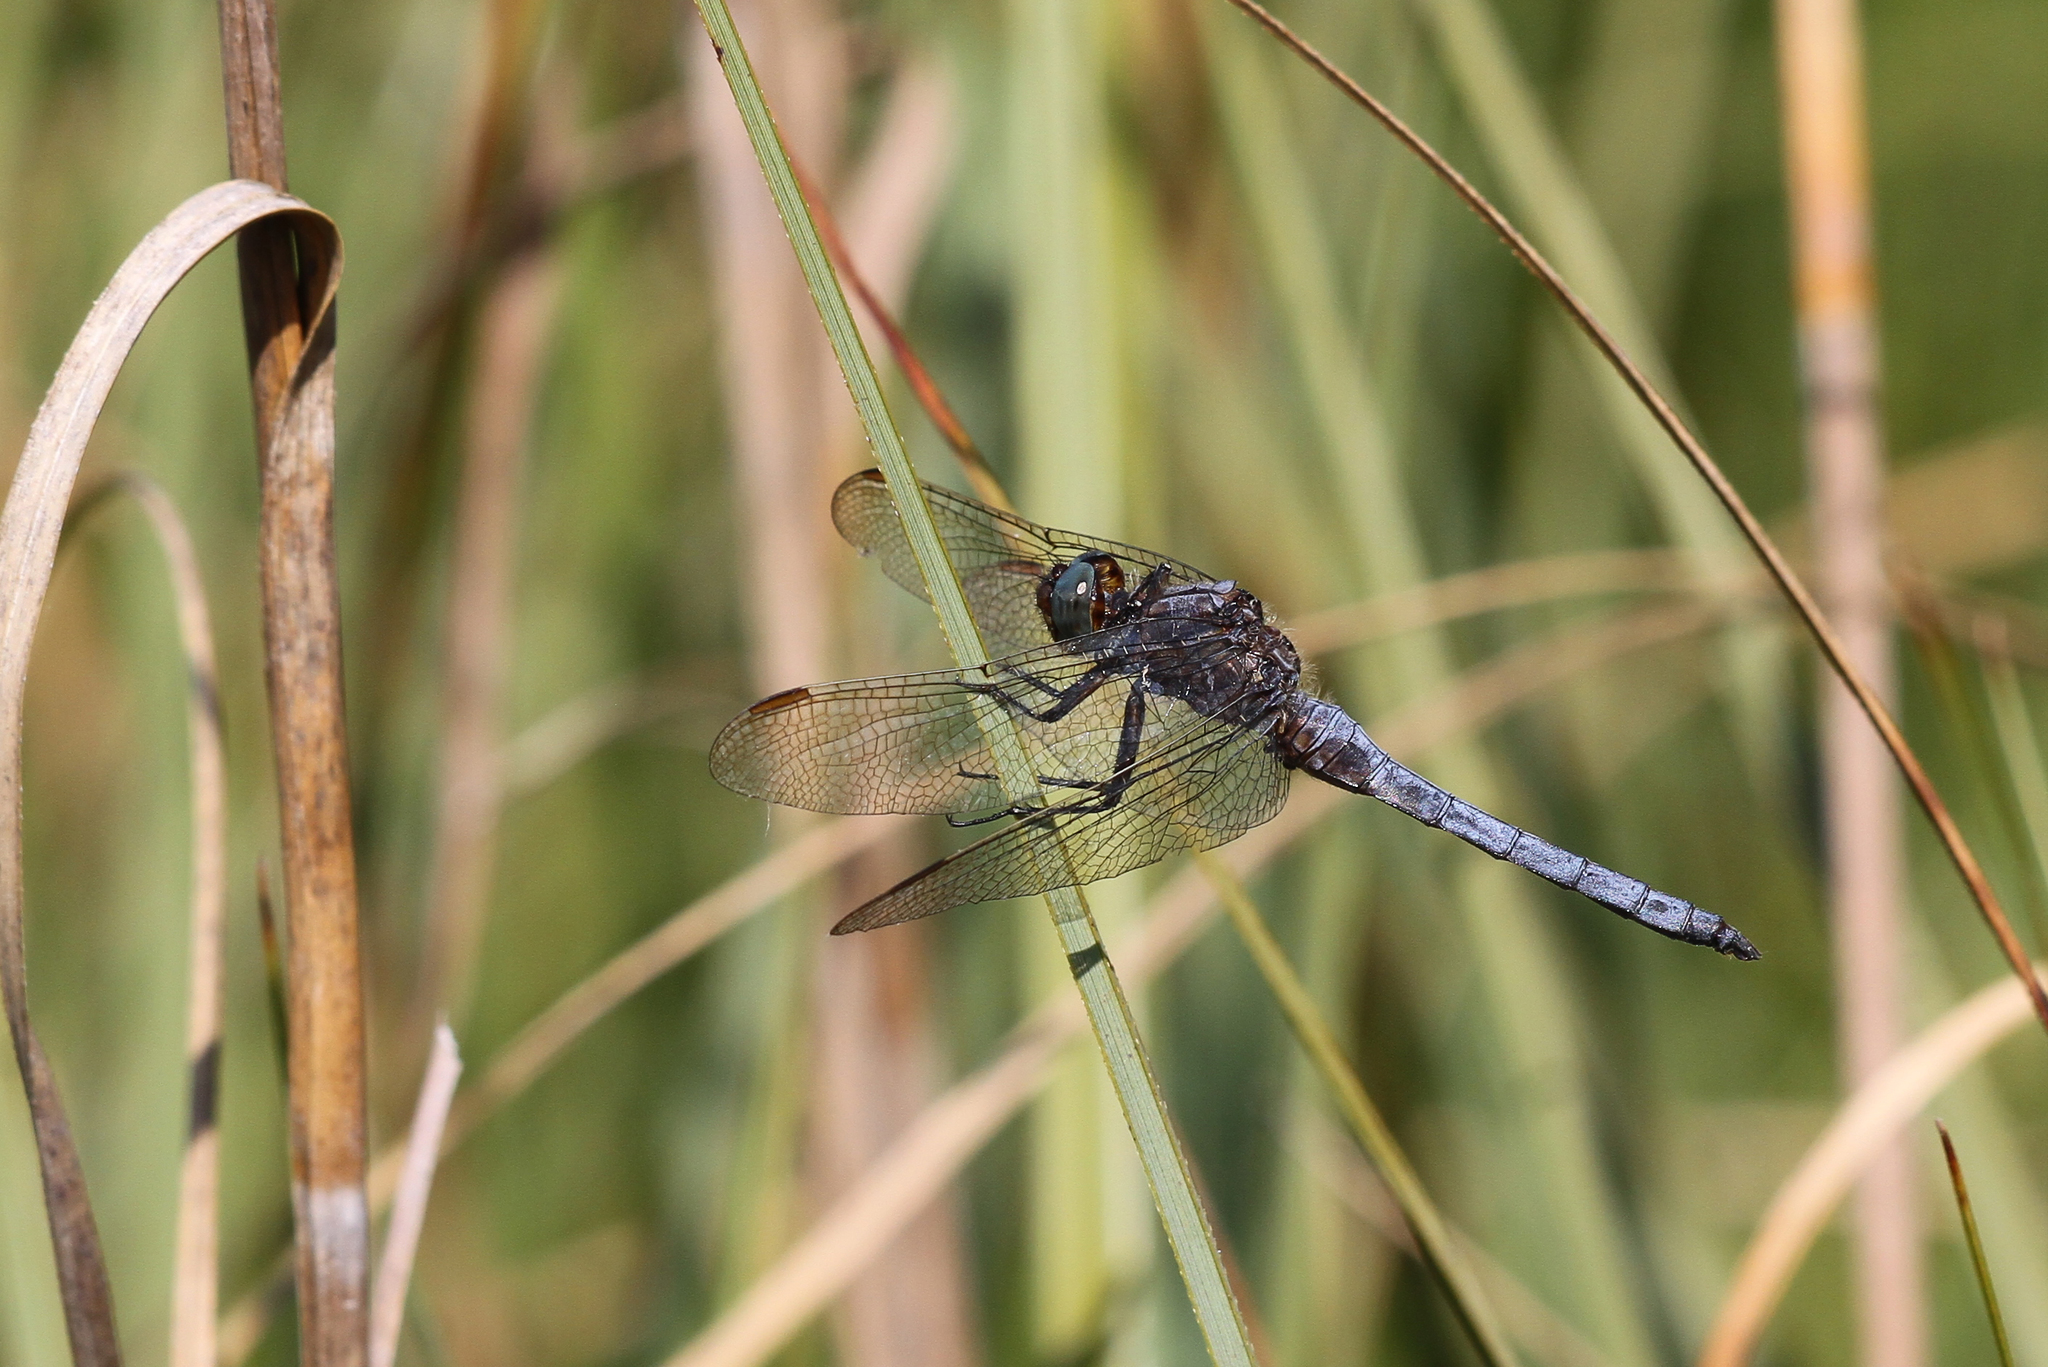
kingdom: Animalia
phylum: Arthropoda
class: Insecta
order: Odonata
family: Libellulidae
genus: Orthetrum
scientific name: Orthetrum coerulescens
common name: Keeled skimmer
